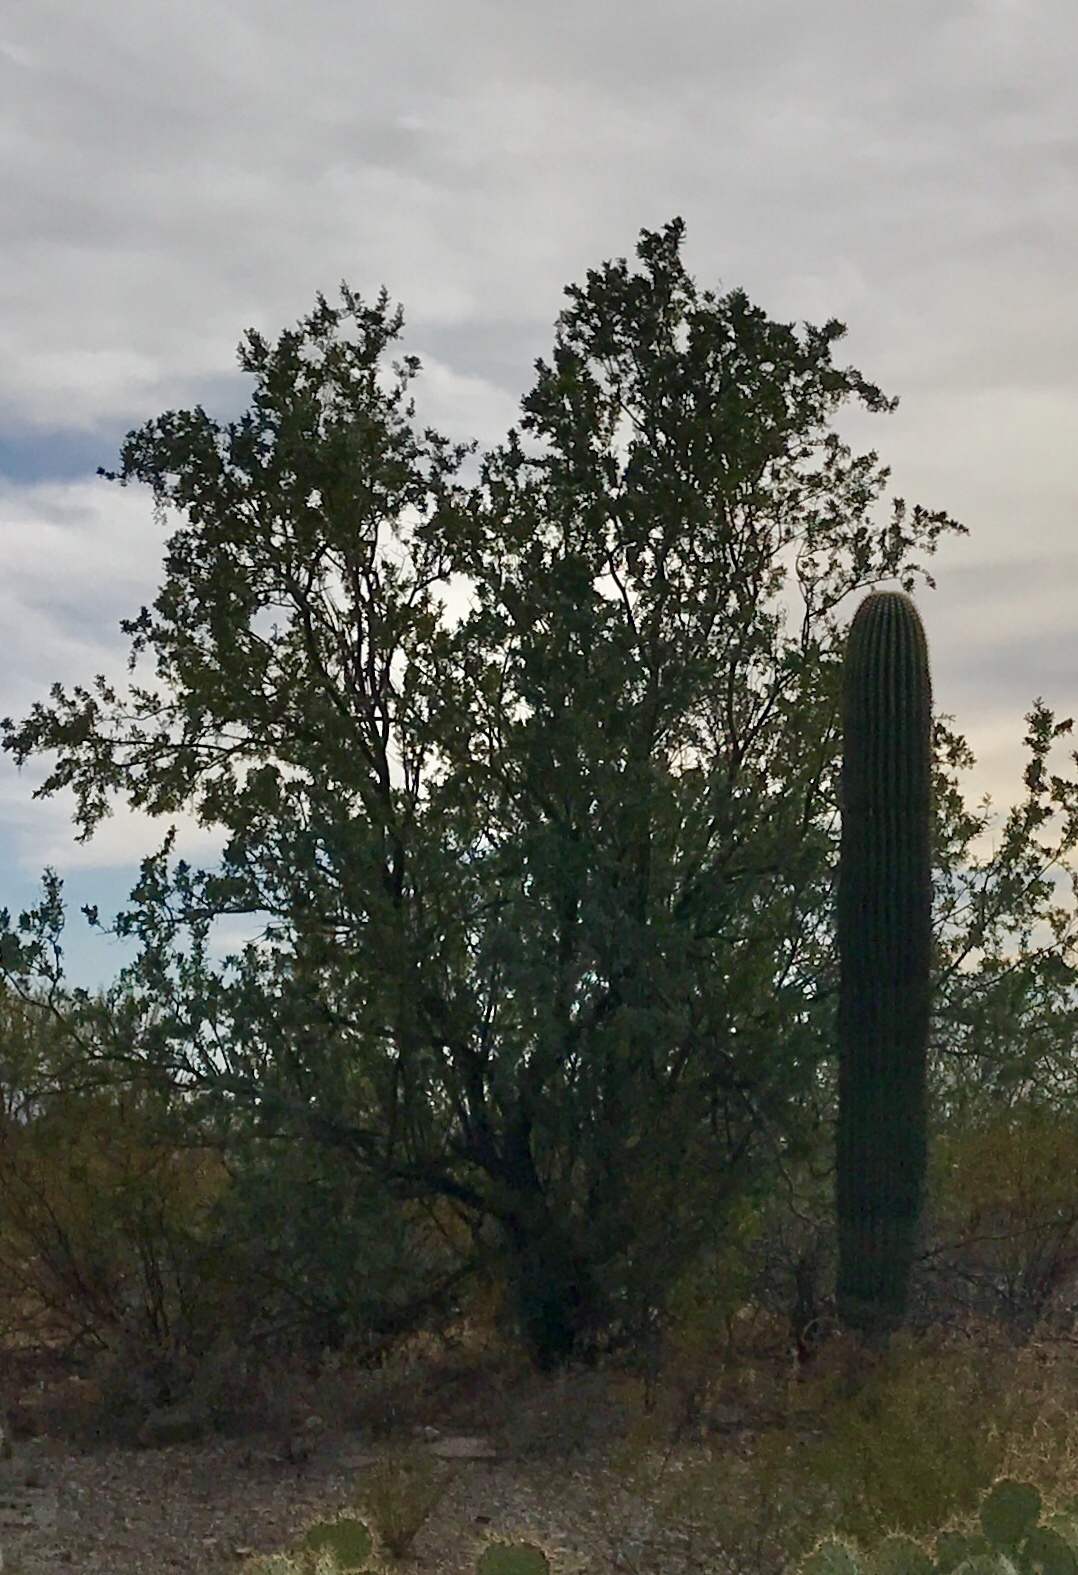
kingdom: Plantae
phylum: Tracheophyta
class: Magnoliopsida
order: Fabales
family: Fabaceae
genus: Olneya
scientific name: Olneya tesota
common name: Desert ironwood
